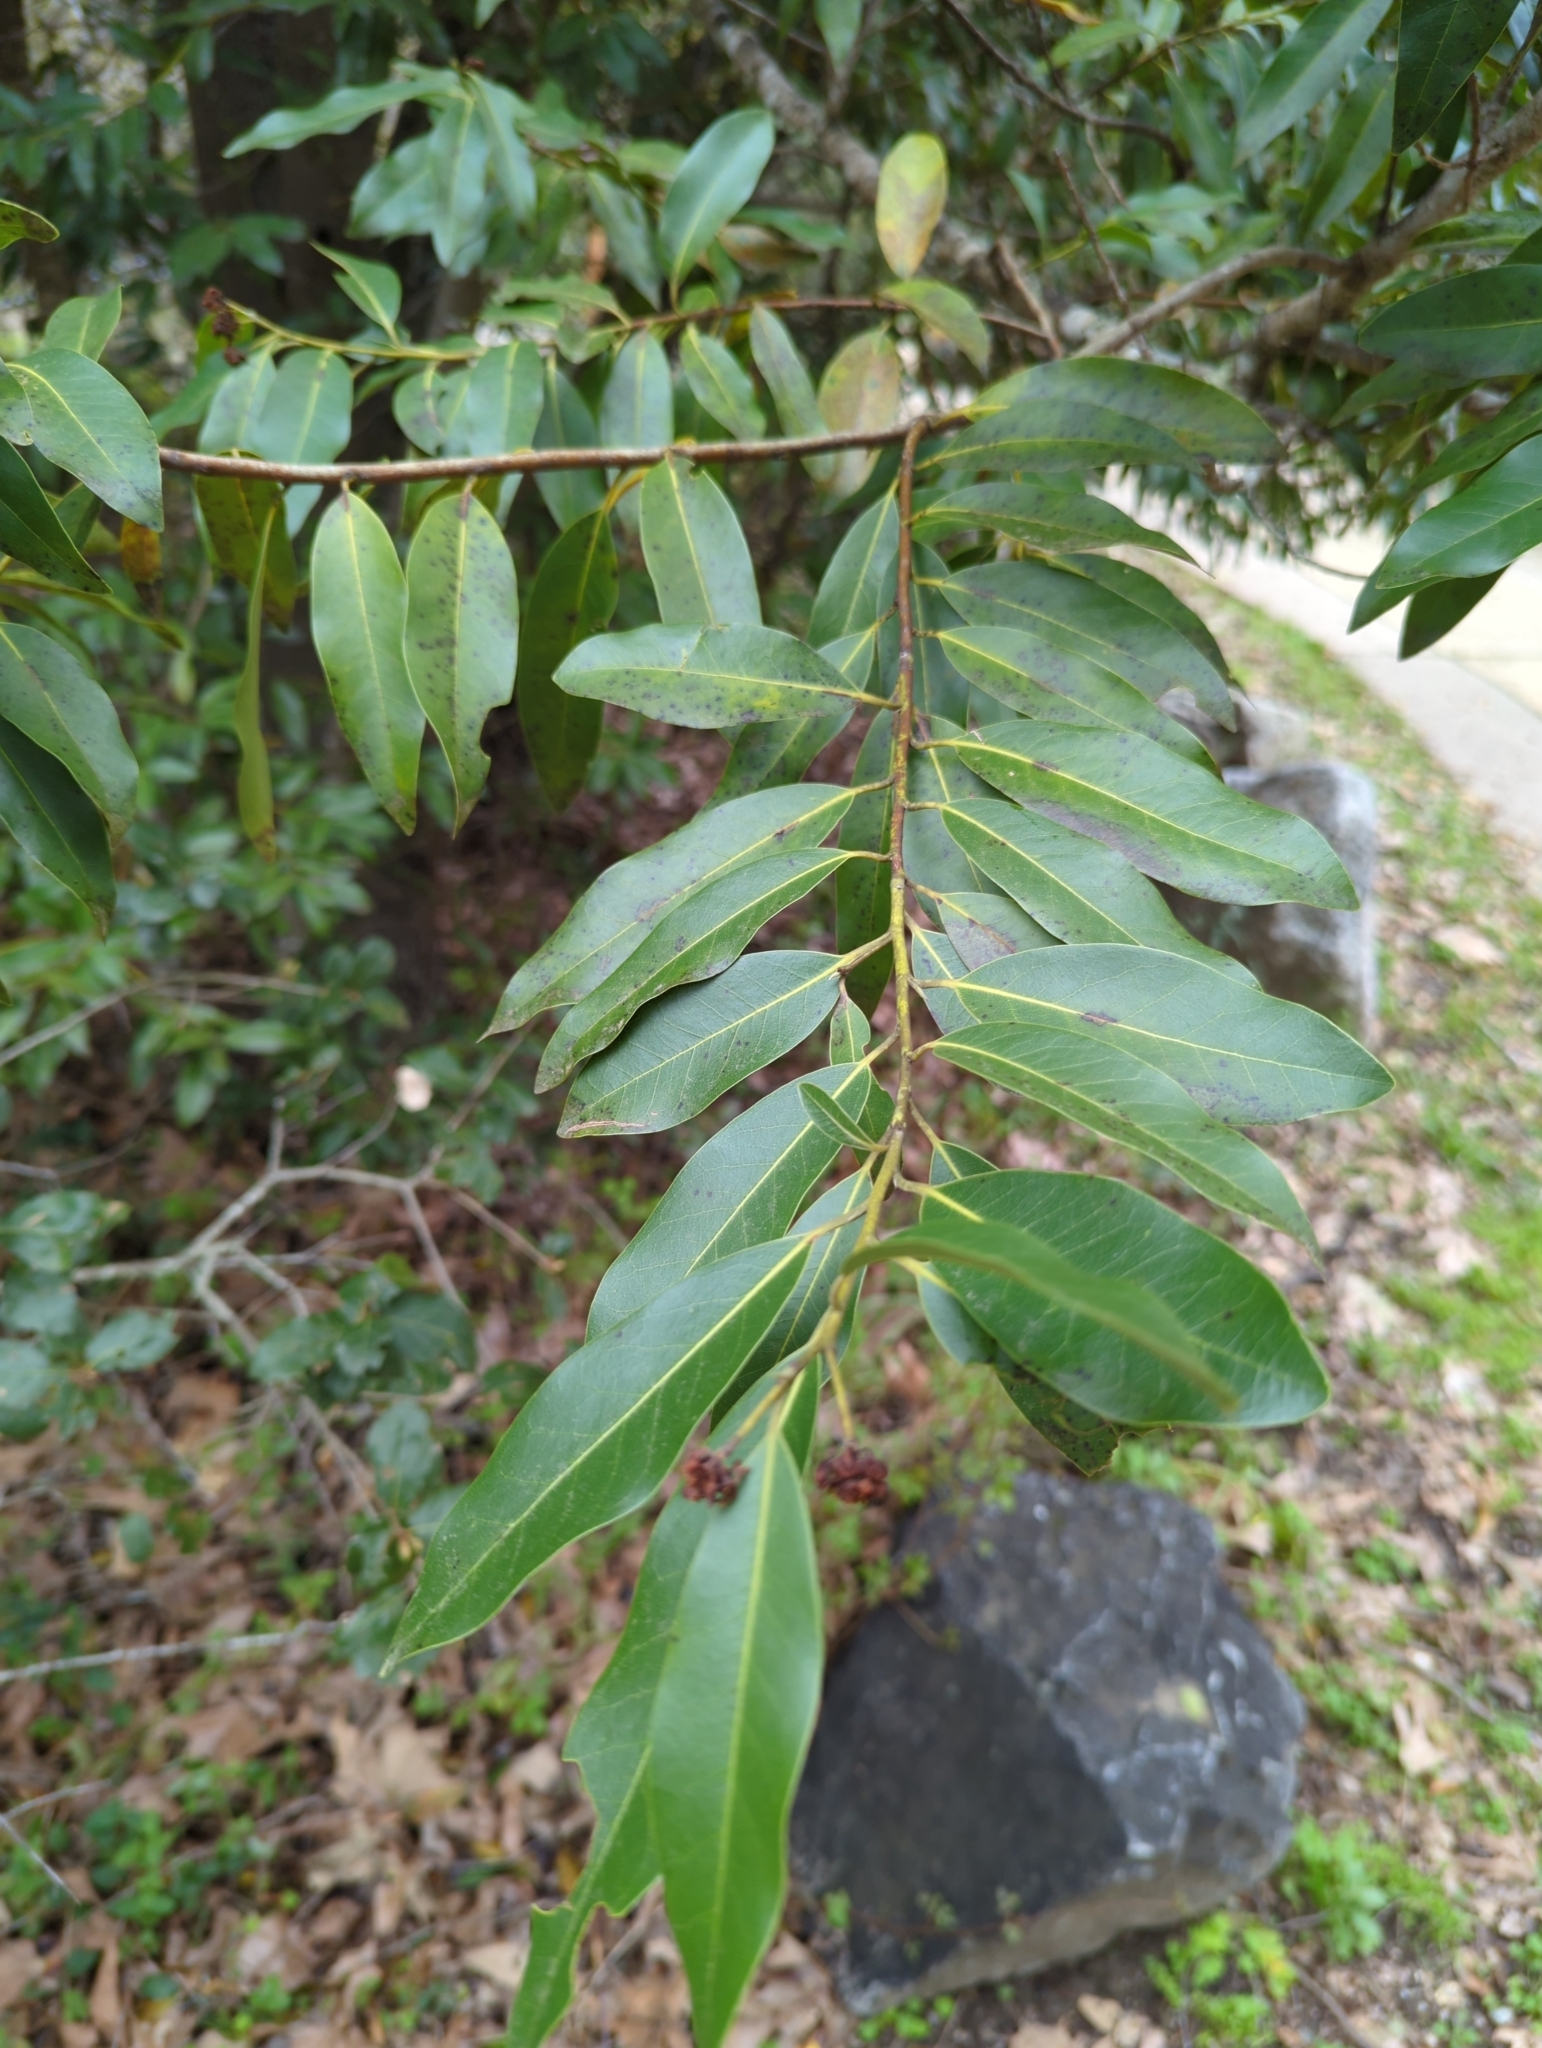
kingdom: Plantae
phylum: Tracheophyta
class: Magnoliopsida
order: Laurales
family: Lauraceae
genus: Umbellularia
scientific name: Umbellularia californica
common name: California bay
